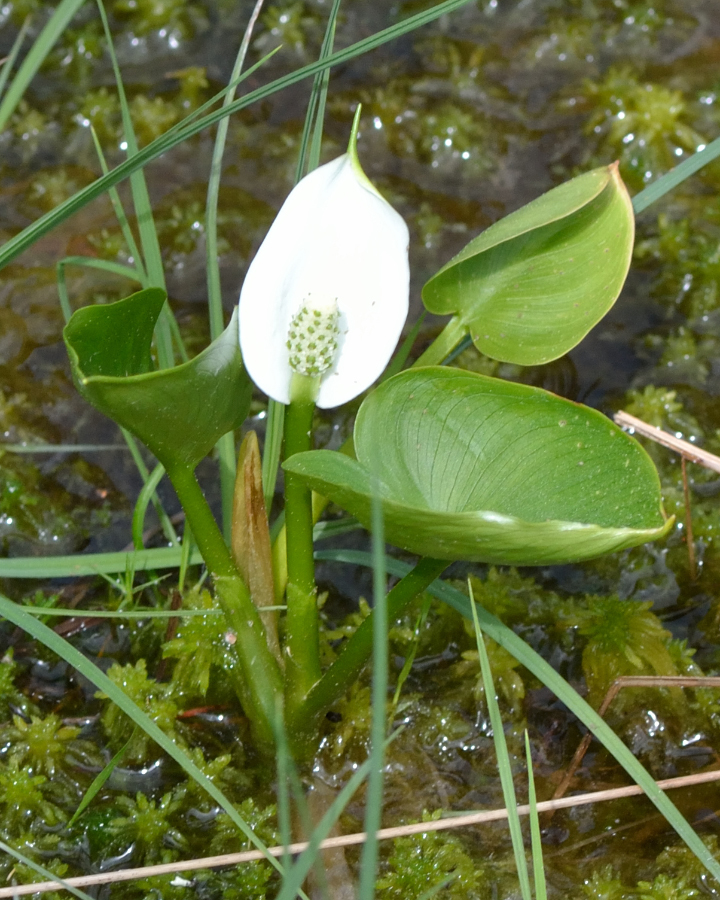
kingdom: Plantae
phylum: Tracheophyta
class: Liliopsida
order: Alismatales
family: Araceae
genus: Calla
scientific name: Calla palustris
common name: Bog arum
